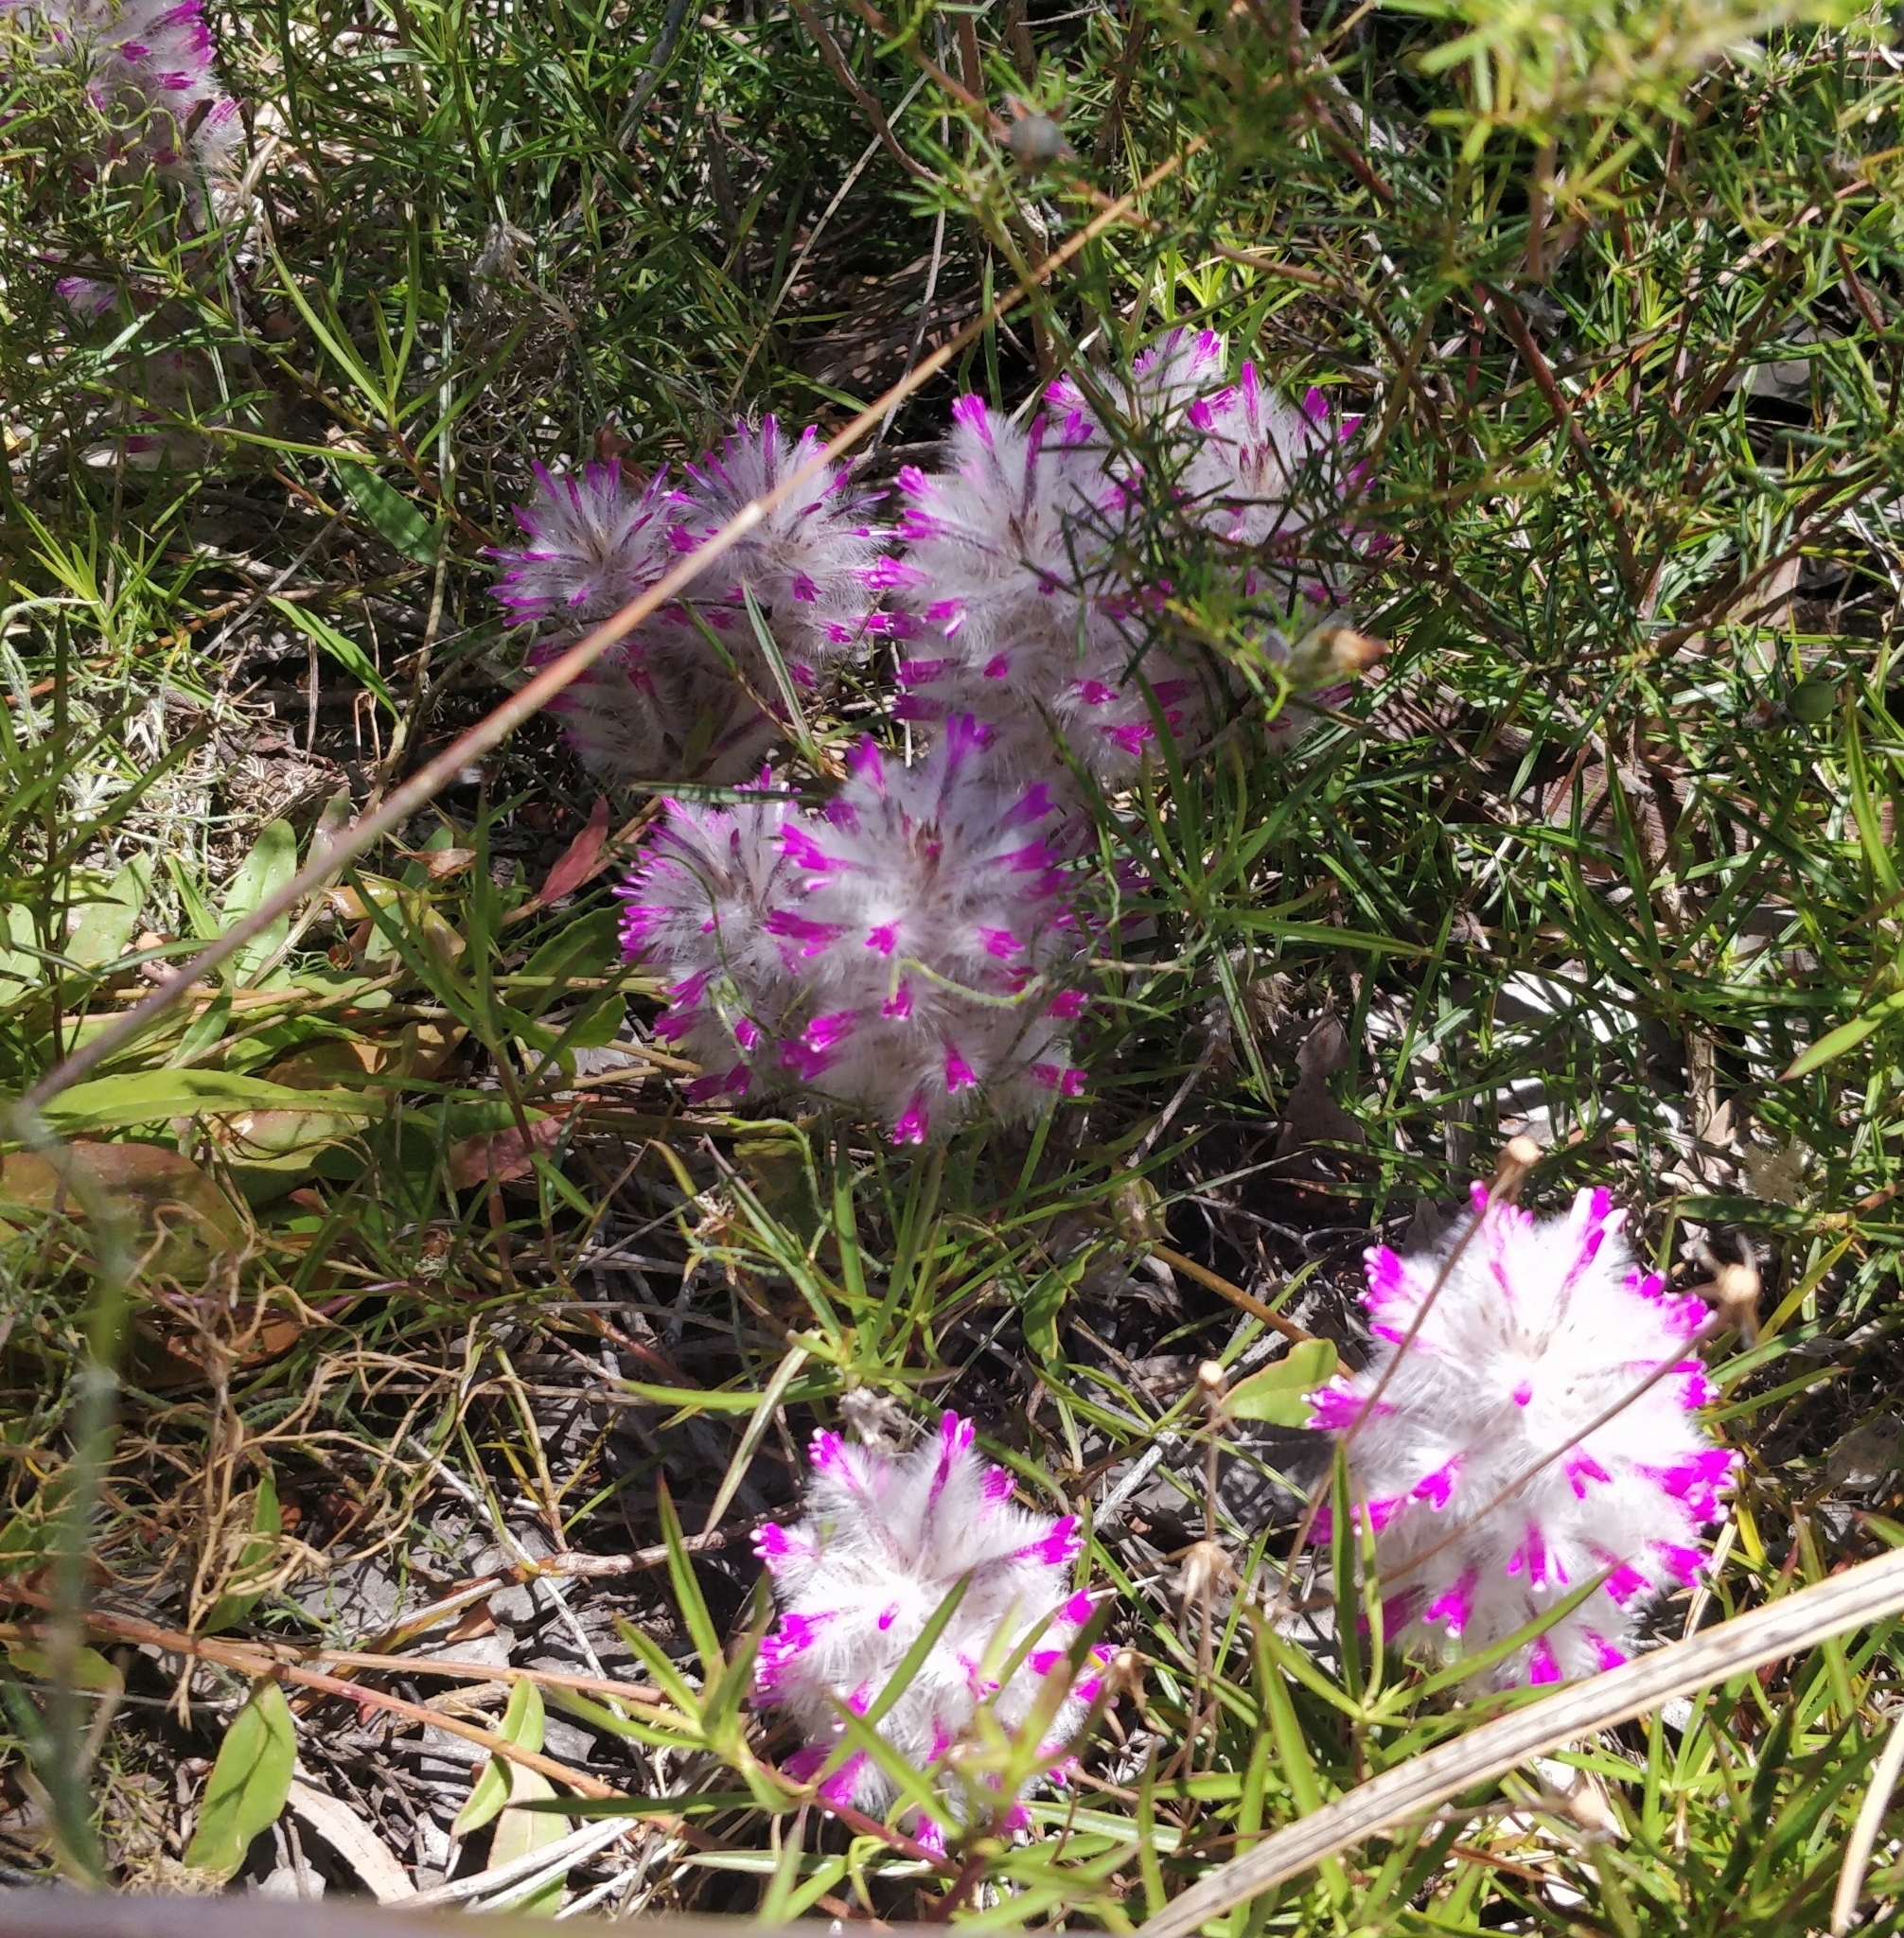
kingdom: Plantae
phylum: Tracheophyta
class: Magnoliopsida
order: Caryophyllales
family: Amaranthaceae
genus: Ptilotus
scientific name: Ptilotus manglesii
